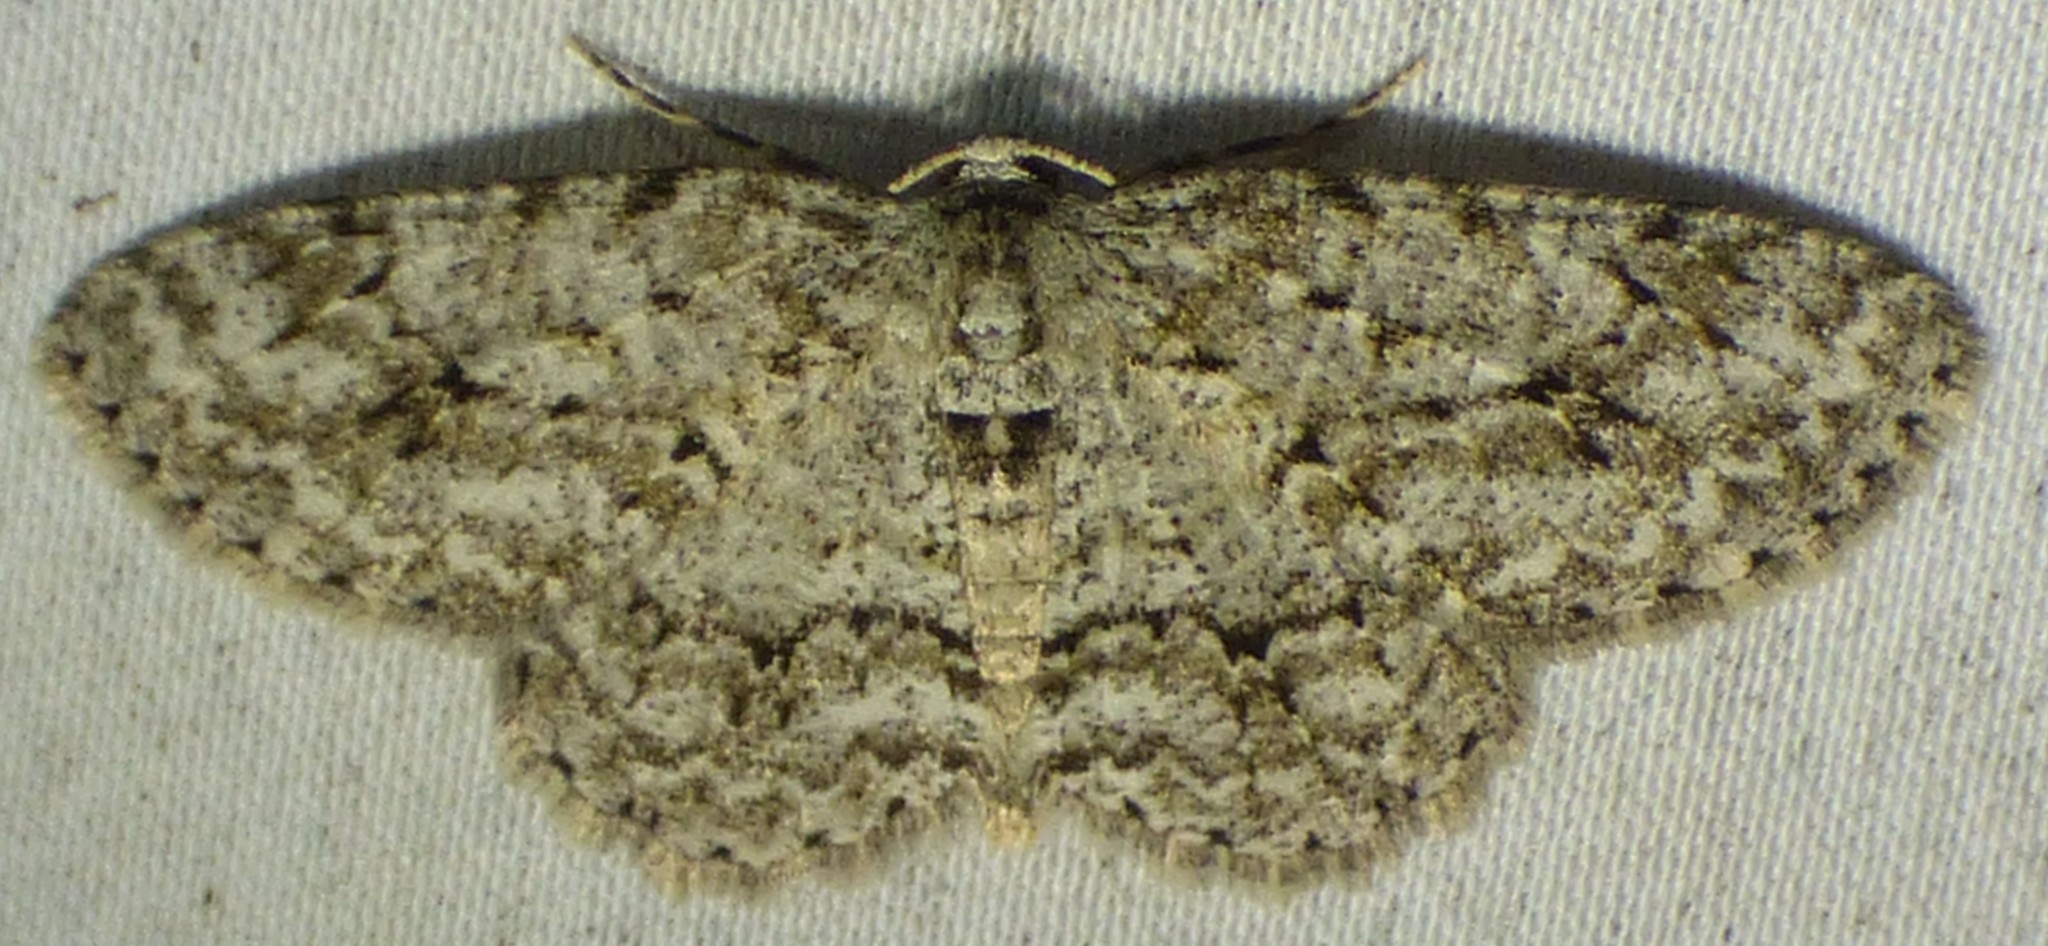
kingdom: Animalia
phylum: Arthropoda
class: Insecta
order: Lepidoptera
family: Geometridae
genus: Ectropis
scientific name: Ectropis crepuscularia
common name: Engrailed
